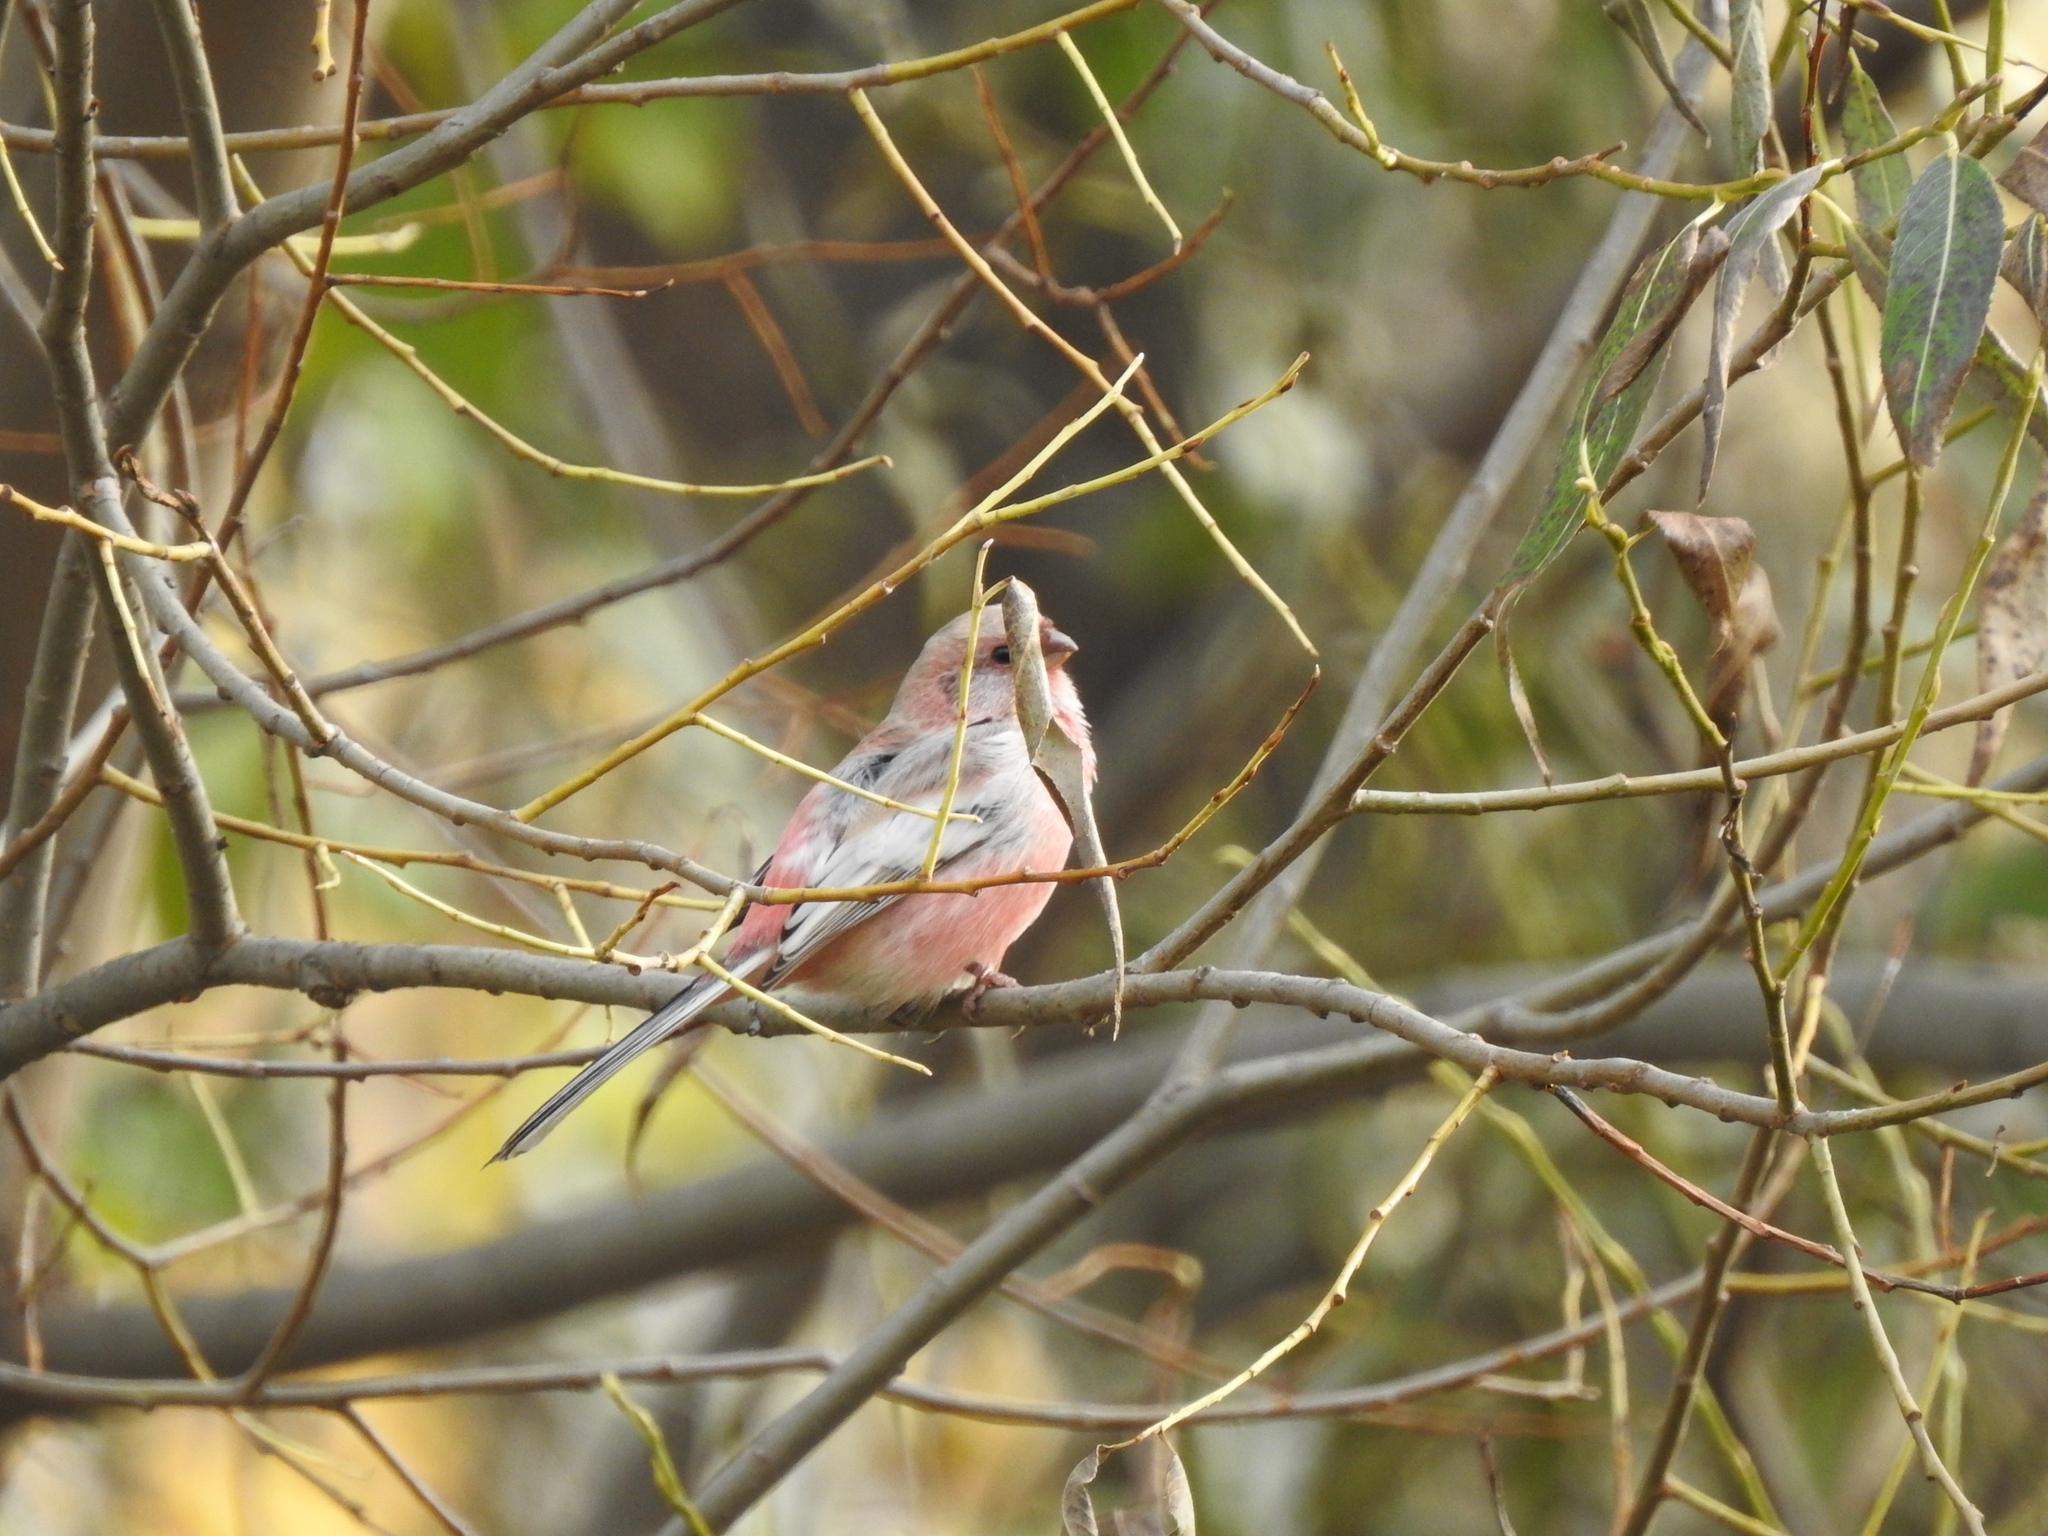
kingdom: Animalia
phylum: Chordata
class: Aves
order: Passeriformes
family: Fringillidae
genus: Carpodacus
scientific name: Carpodacus sibiricus
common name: Long-tailed rosefinch
